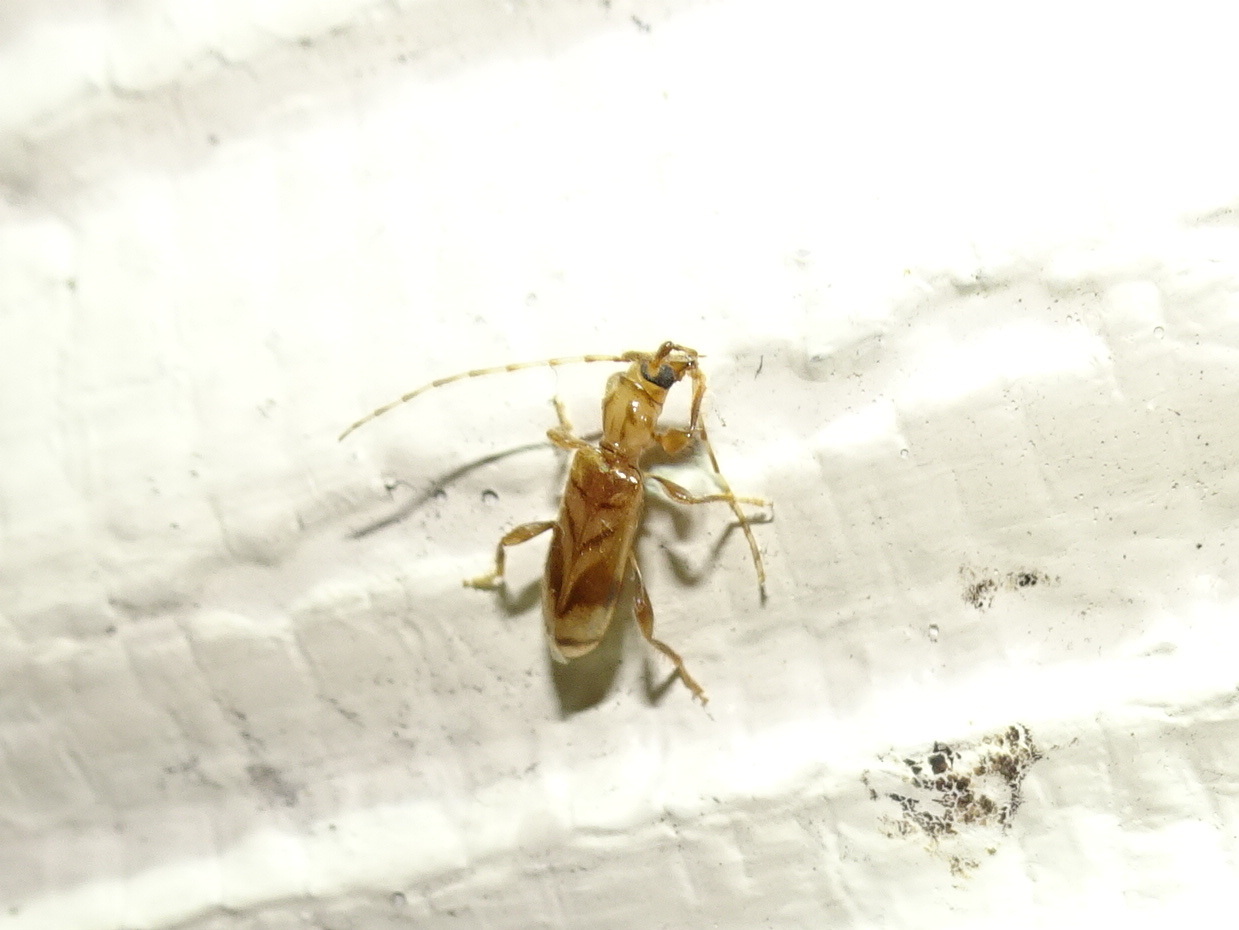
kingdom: Animalia
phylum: Arthropoda
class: Insecta
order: Coleoptera
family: Cerambycidae
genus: Obrium
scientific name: Obrium maculatum
